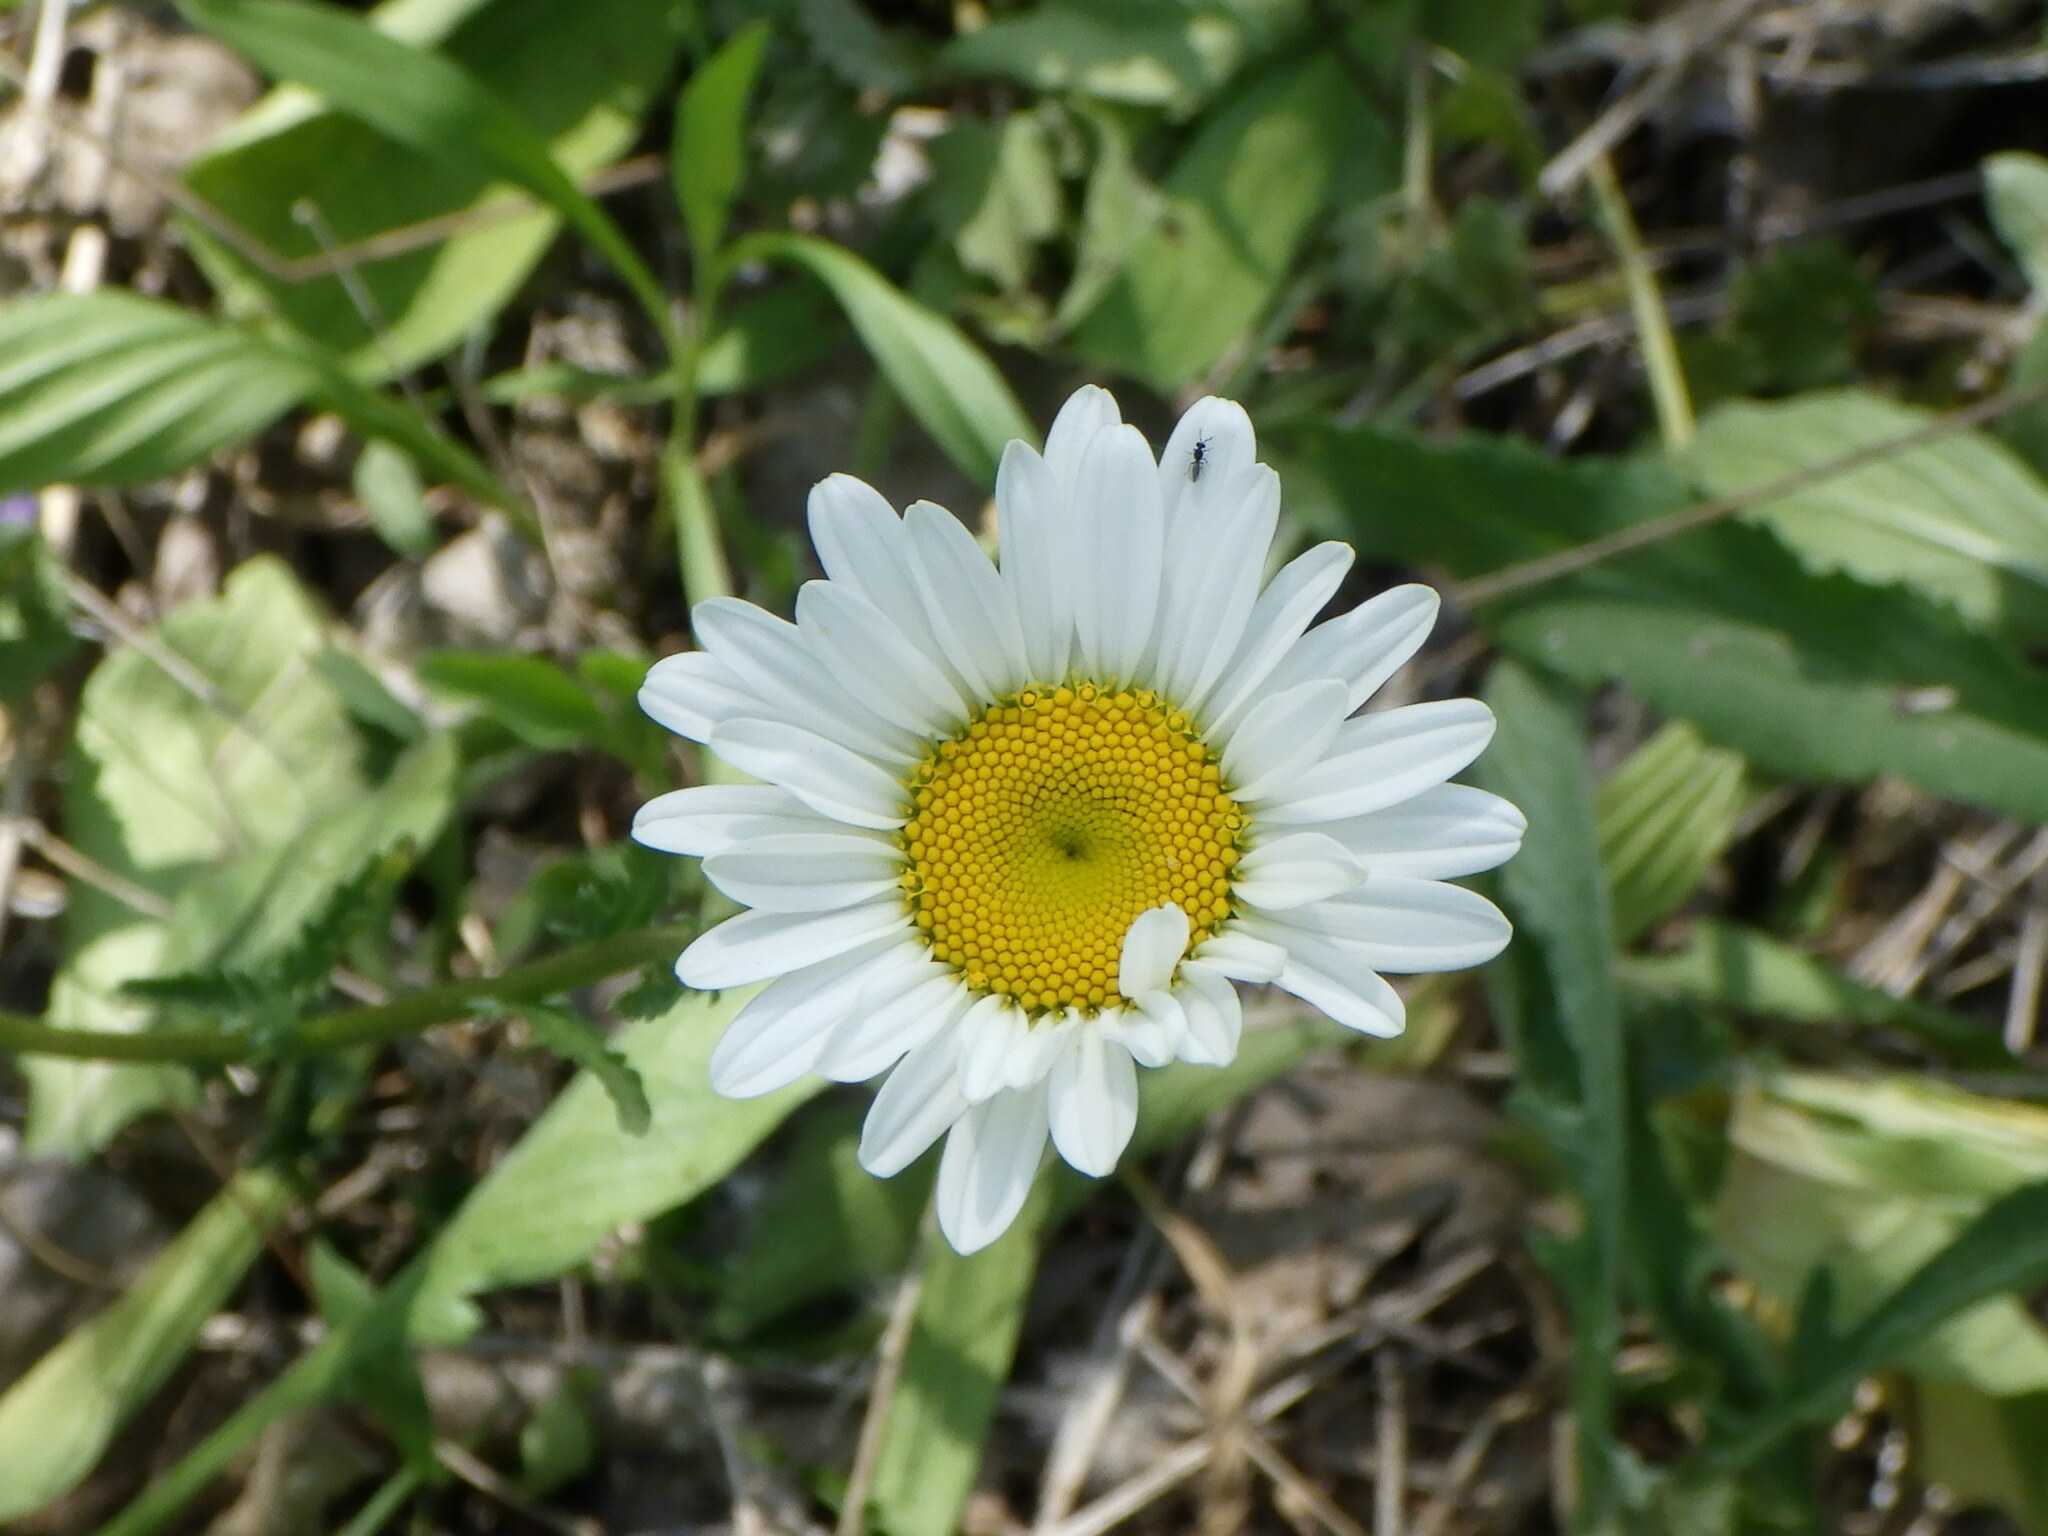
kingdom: Plantae
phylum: Tracheophyta
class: Magnoliopsida
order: Asterales
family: Asteraceae
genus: Leucanthemum
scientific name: Leucanthemum vulgare
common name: Oxeye daisy
